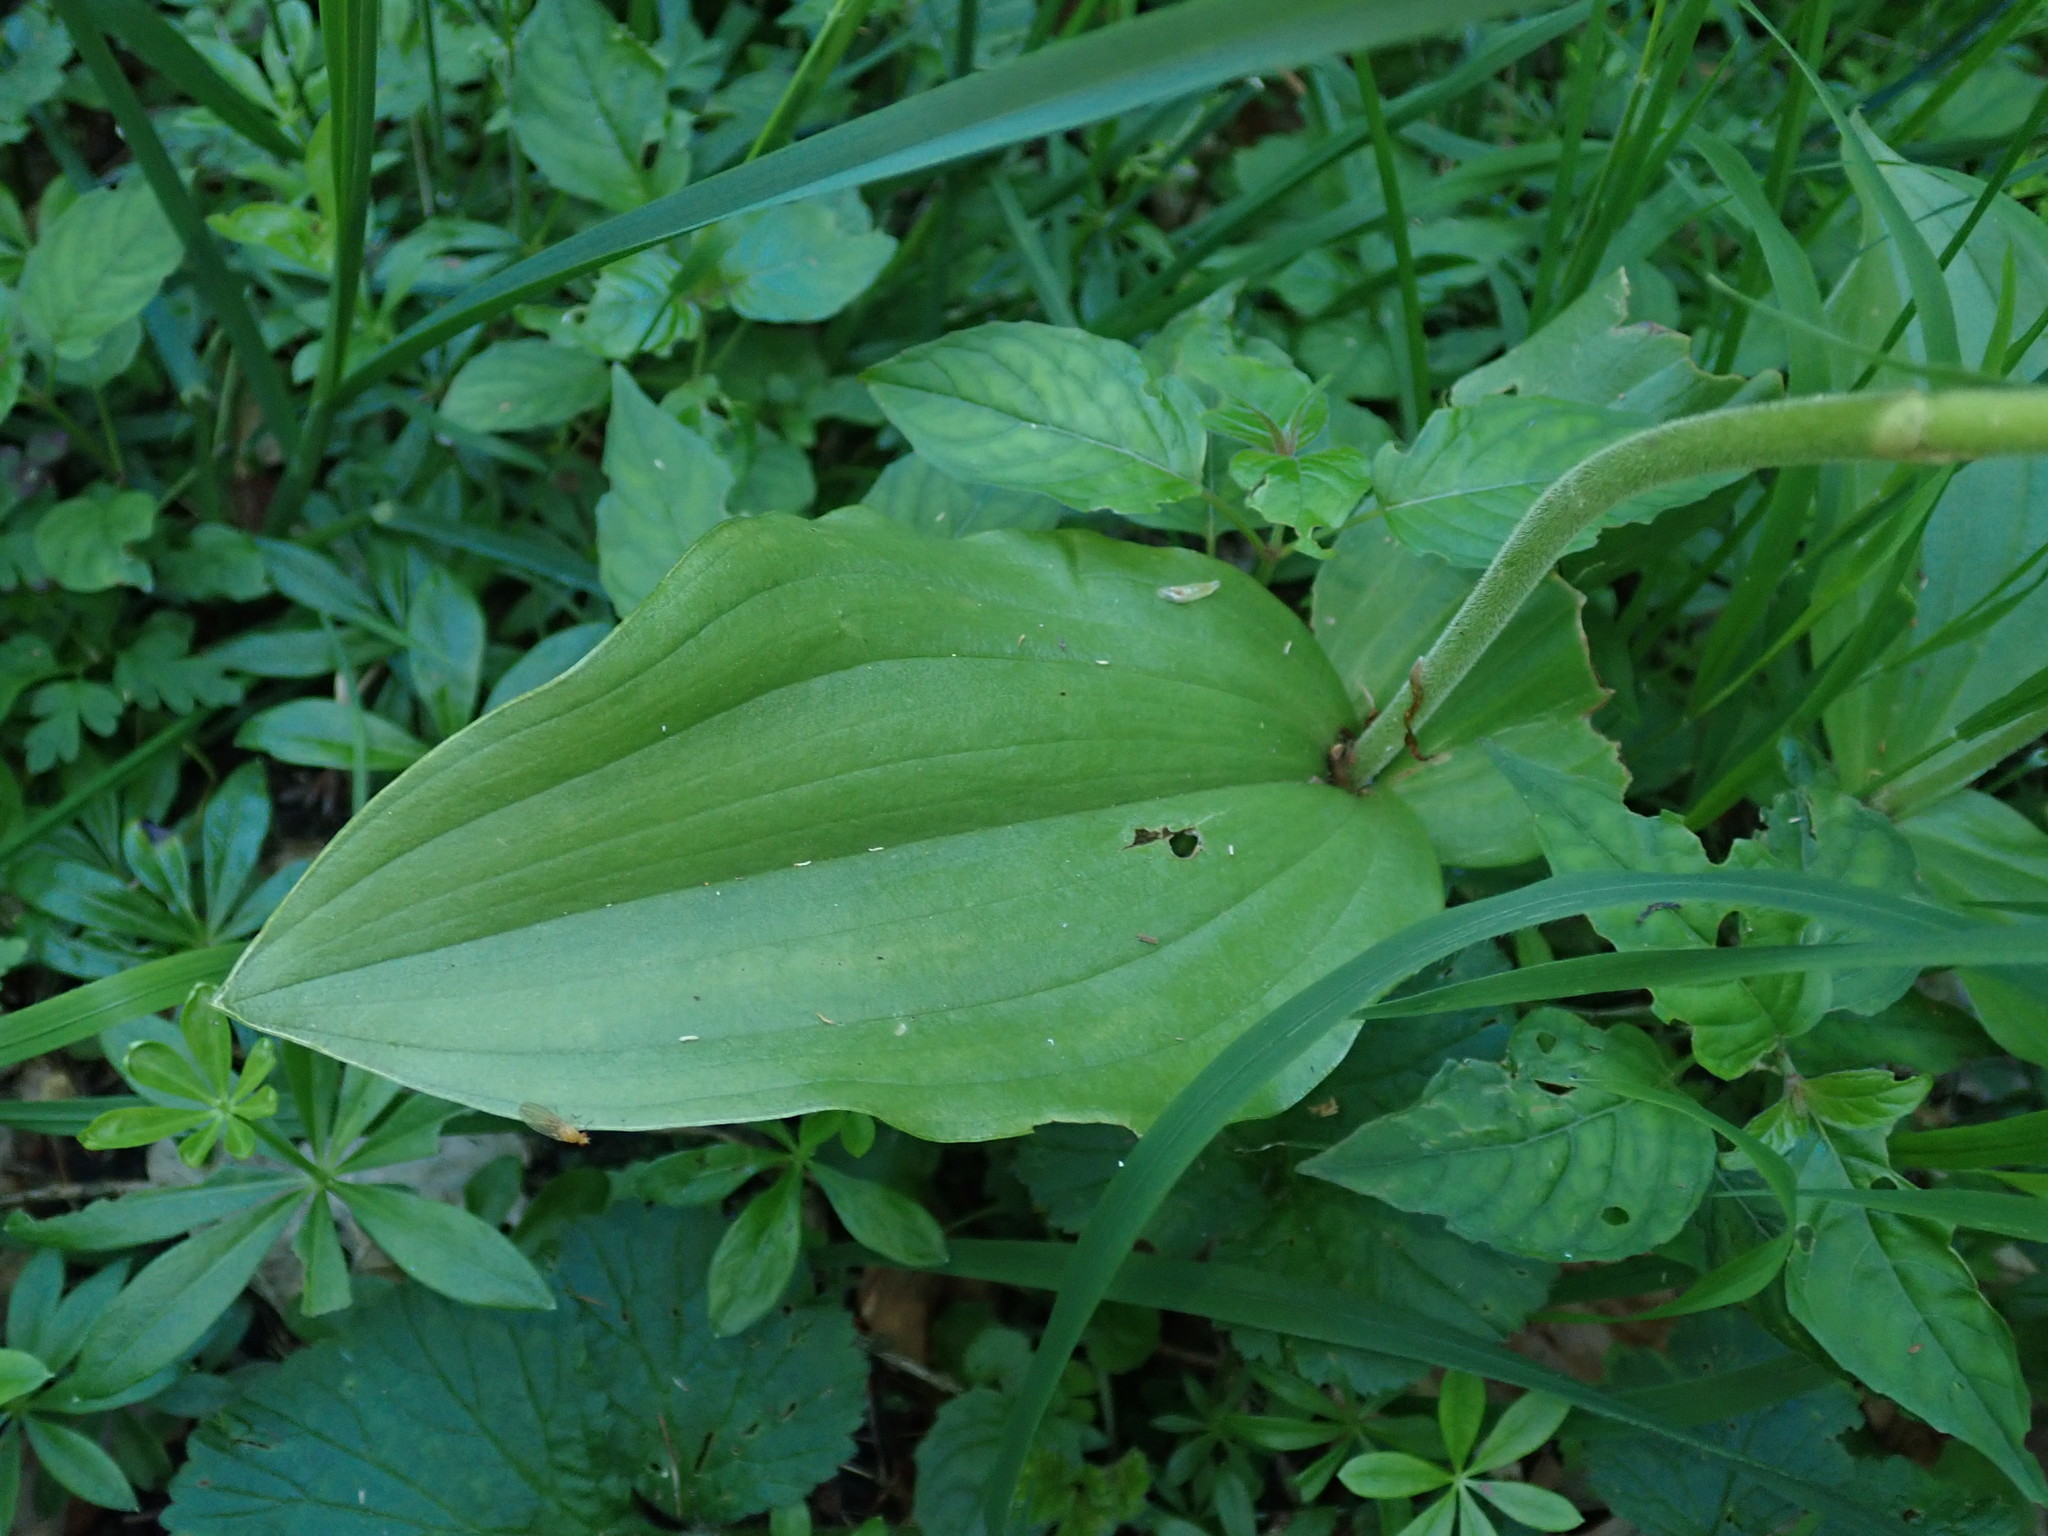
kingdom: Plantae
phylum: Tracheophyta
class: Liliopsida
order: Asparagales
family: Orchidaceae
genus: Neottia
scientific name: Neottia ovata
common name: Common twayblade
